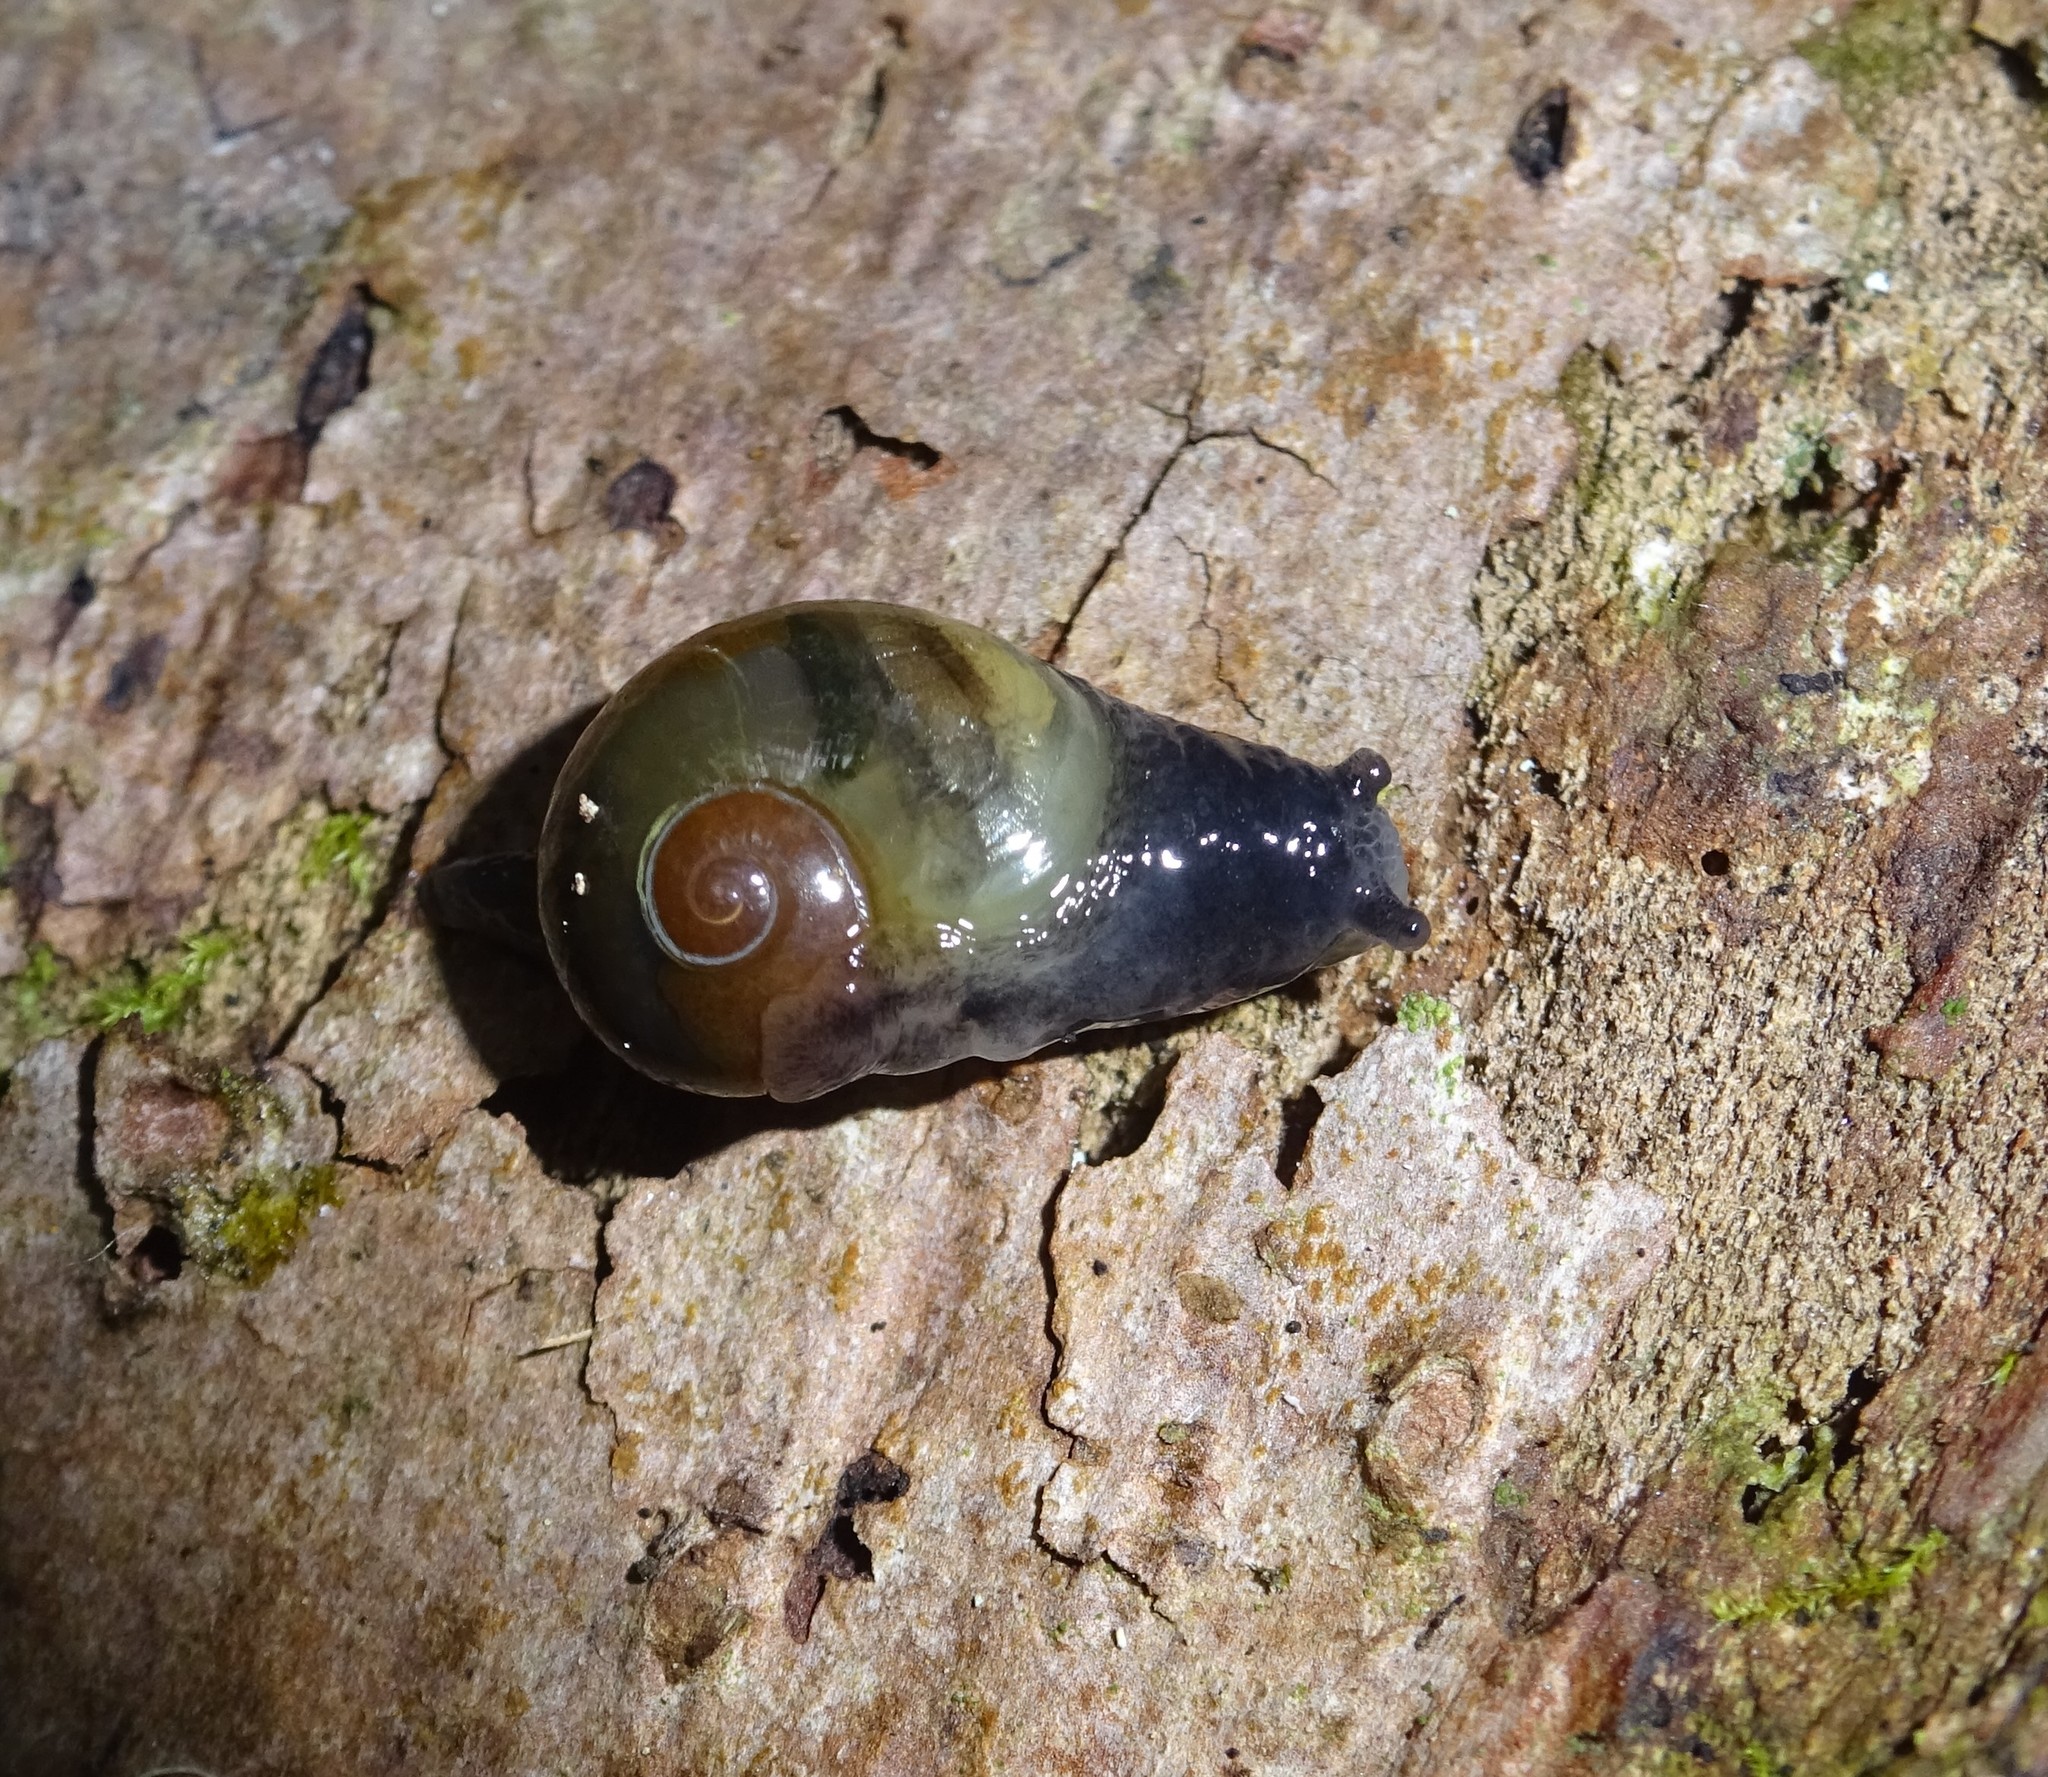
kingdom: Animalia
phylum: Mollusca
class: Gastropoda
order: Stylommatophora
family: Vitrinidae
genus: Phenacolimax
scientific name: Phenacolimax major
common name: Greater pellucid glass snail
